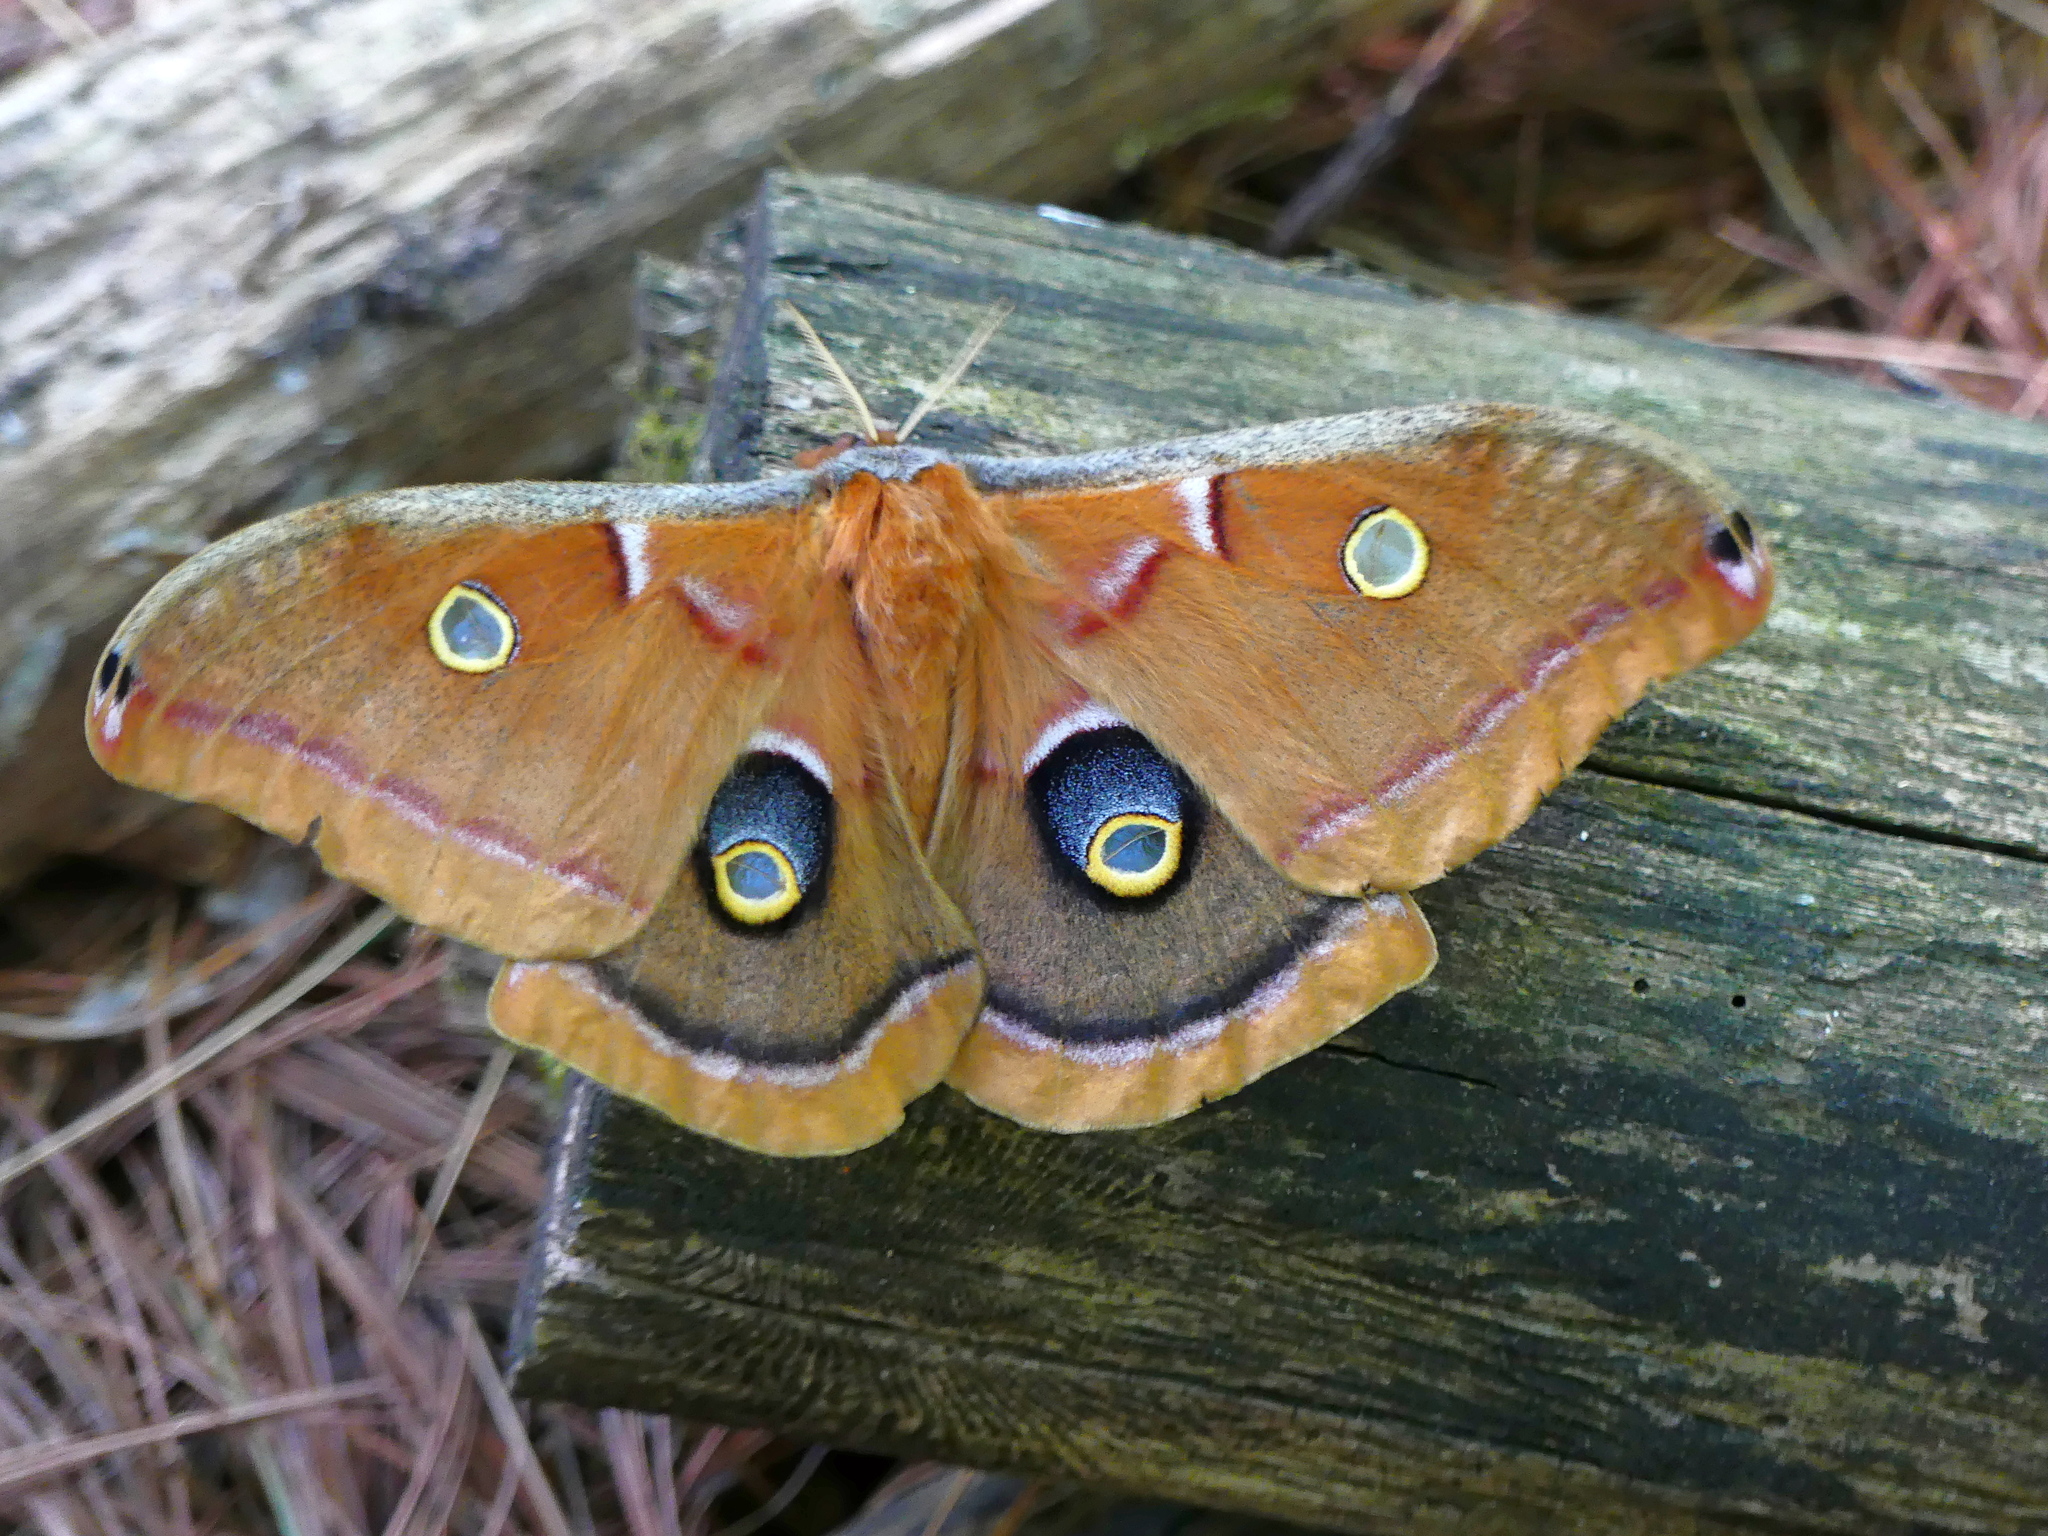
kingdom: Animalia
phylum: Arthropoda
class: Insecta
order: Lepidoptera
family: Saturniidae
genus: Antheraea
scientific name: Antheraea polyphemus
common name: Polyphemus moth
